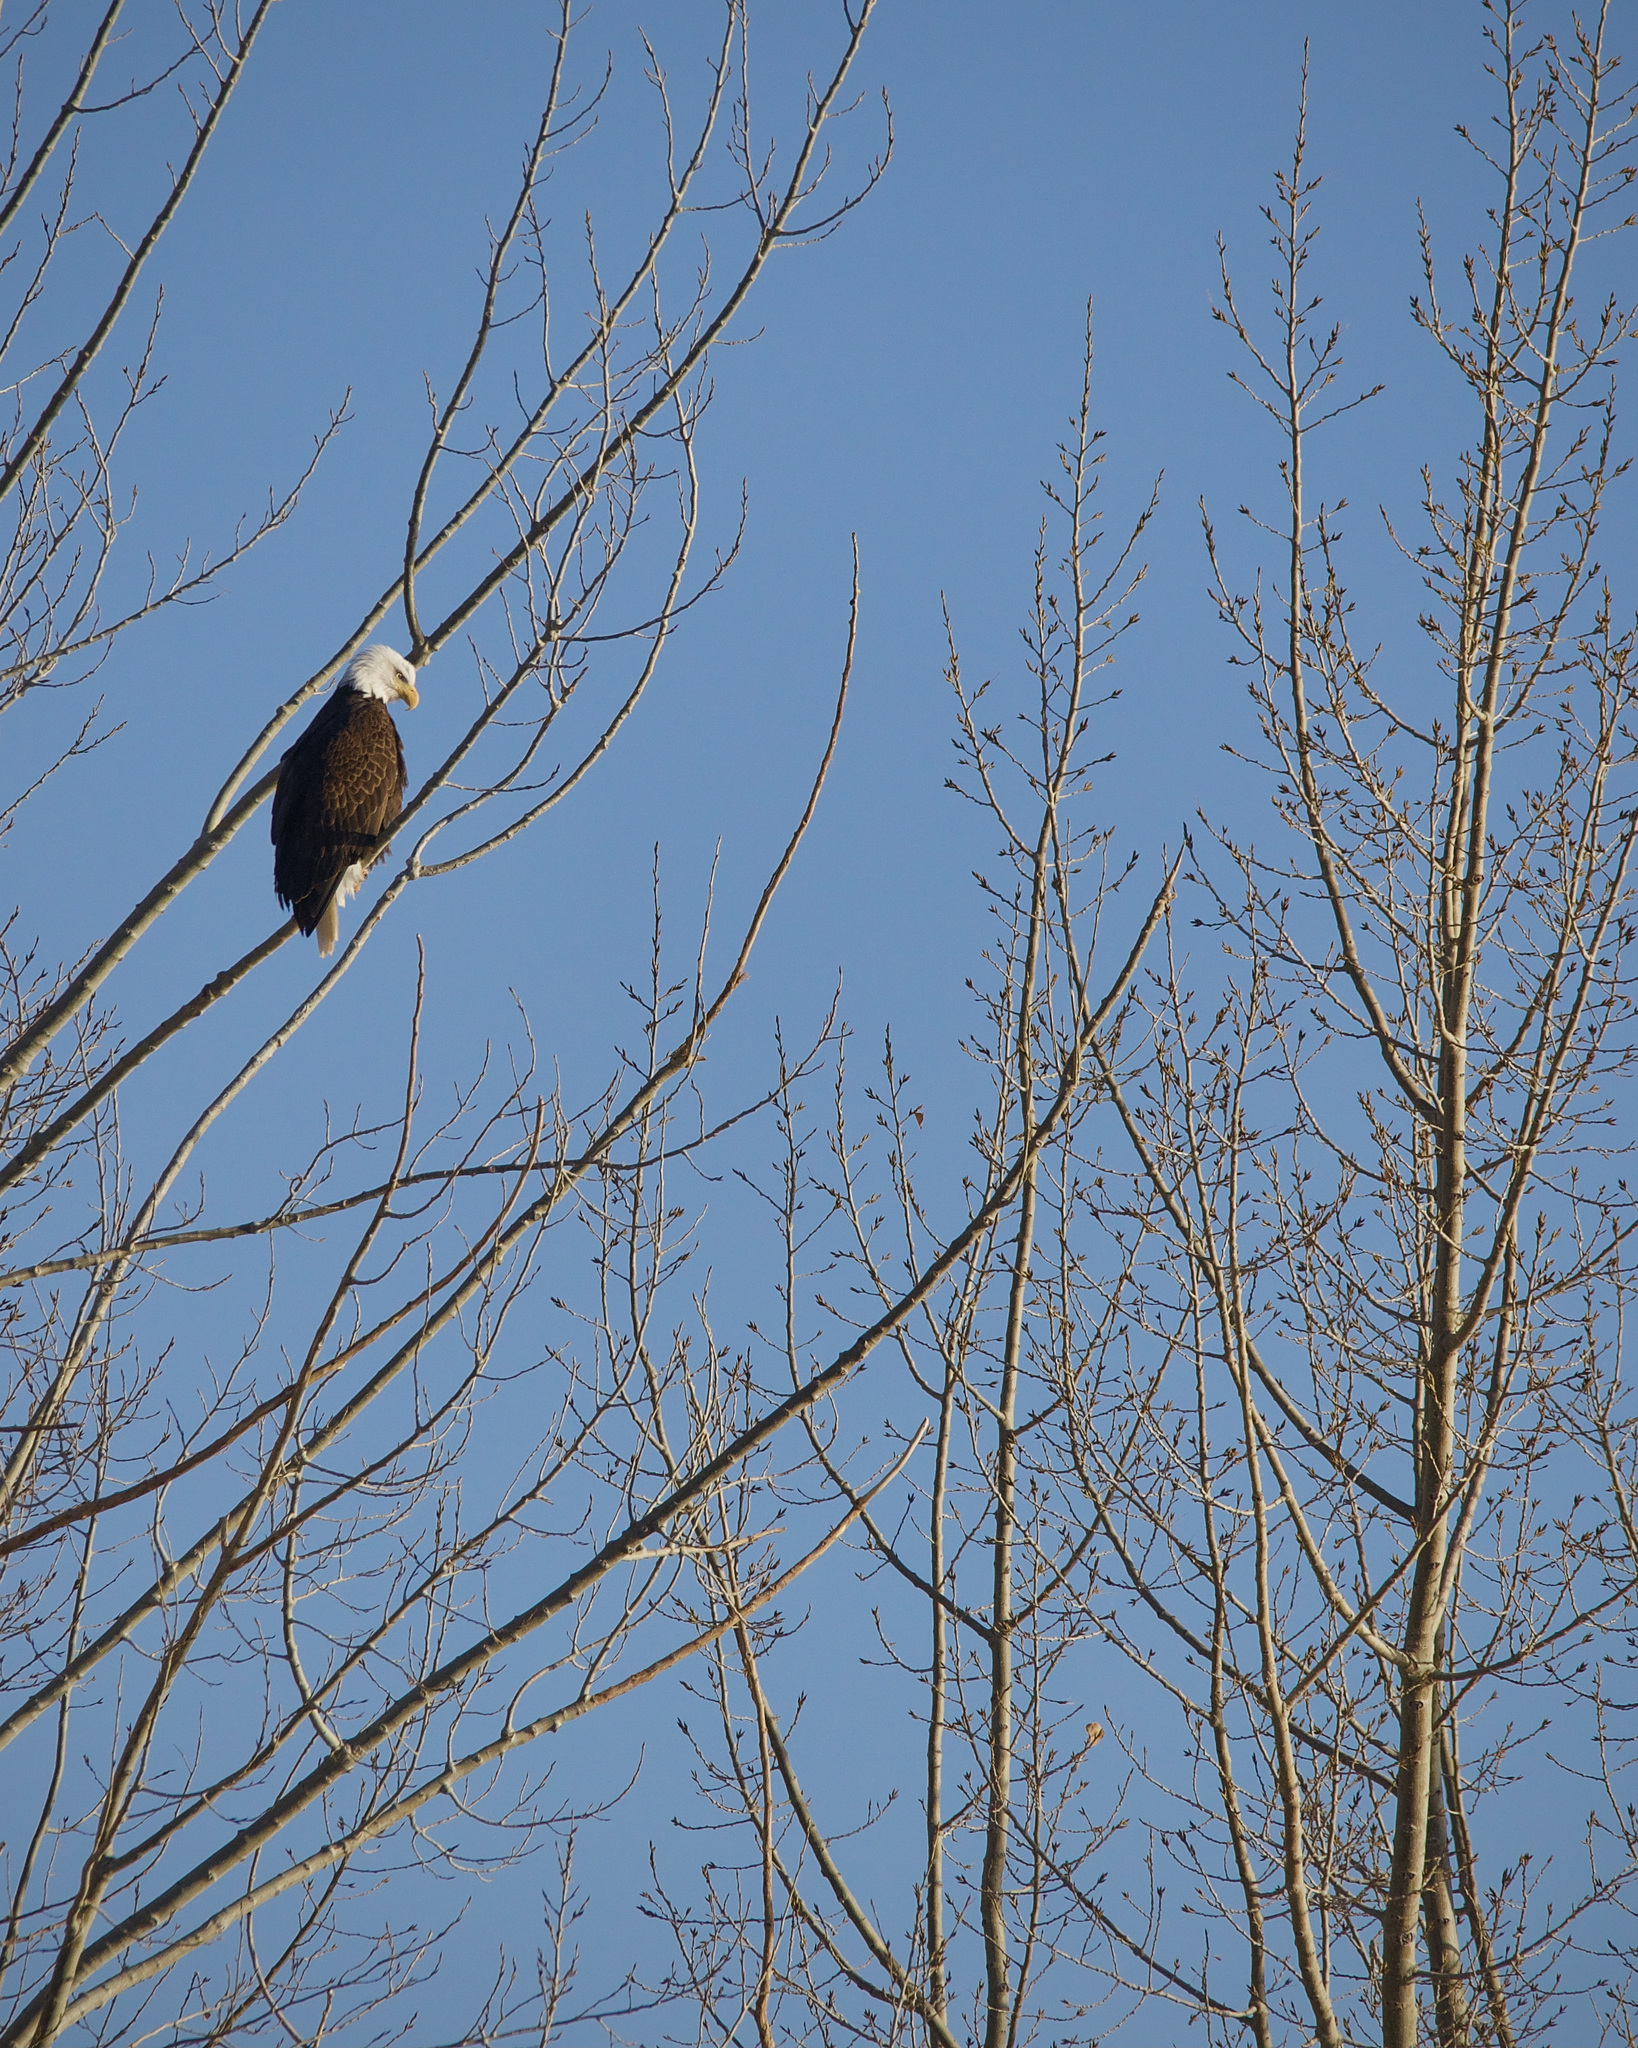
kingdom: Animalia
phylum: Chordata
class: Aves
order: Accipitriformes
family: Accipitridae
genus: Haliaeetus
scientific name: Haliaeetus leucocephalus
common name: Bald eagle
